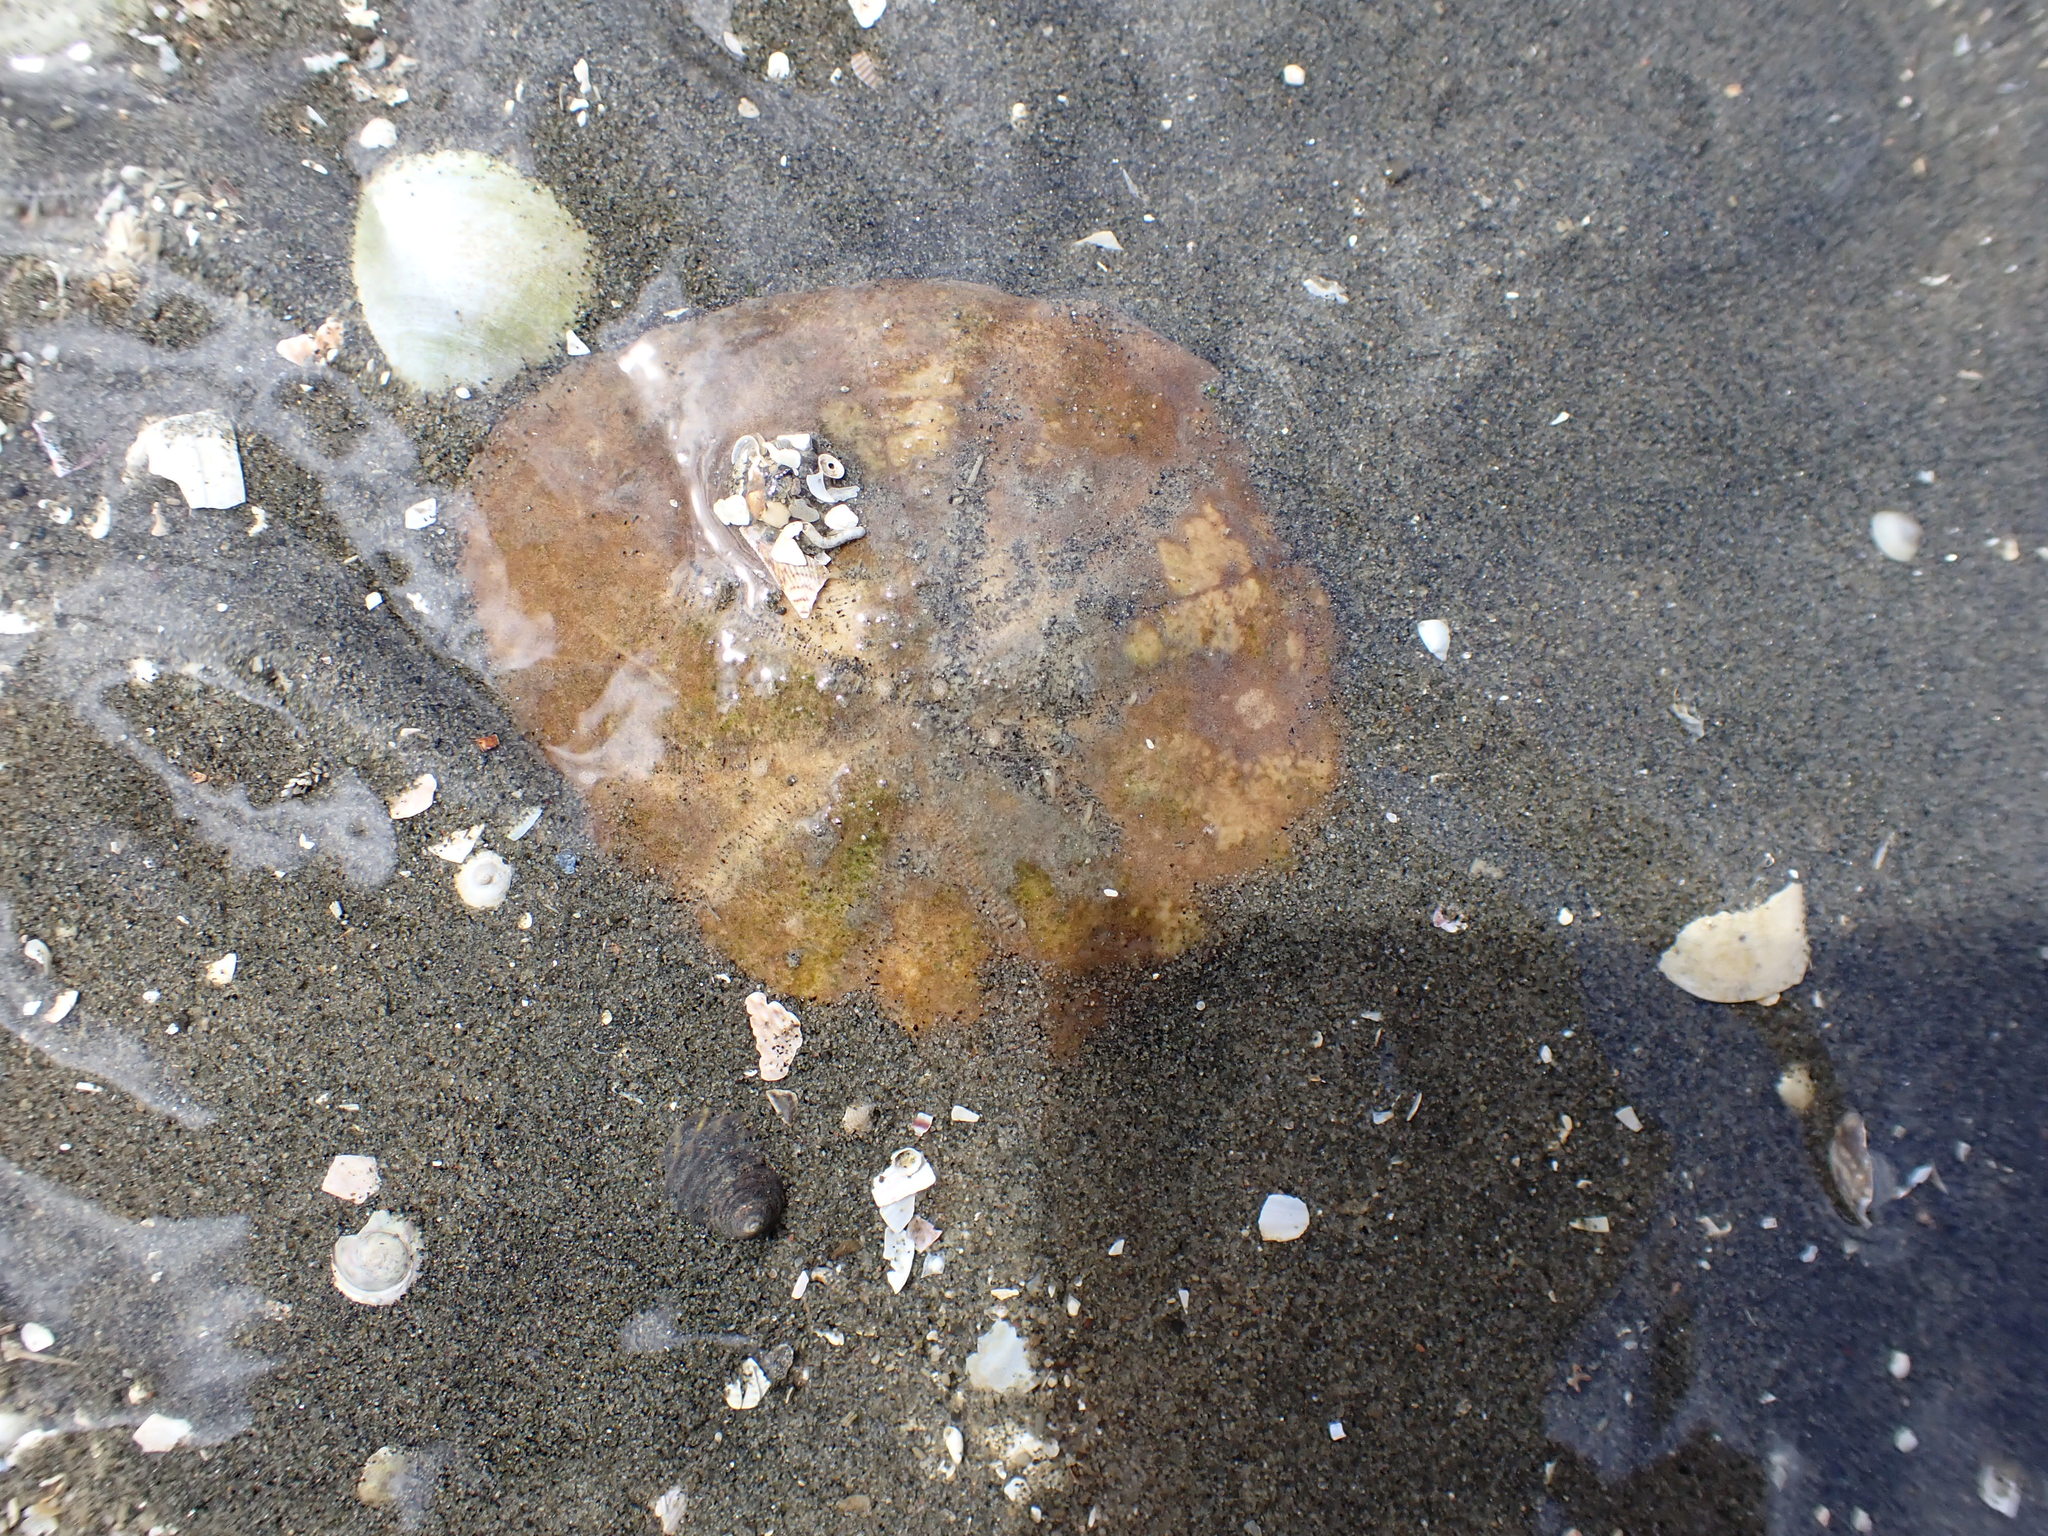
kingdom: Animalia
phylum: Echinodermata
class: Echinoidea
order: Clypeasteroida
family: Clypeasteridae
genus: Fellaster
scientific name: Fellaster zelandiae
